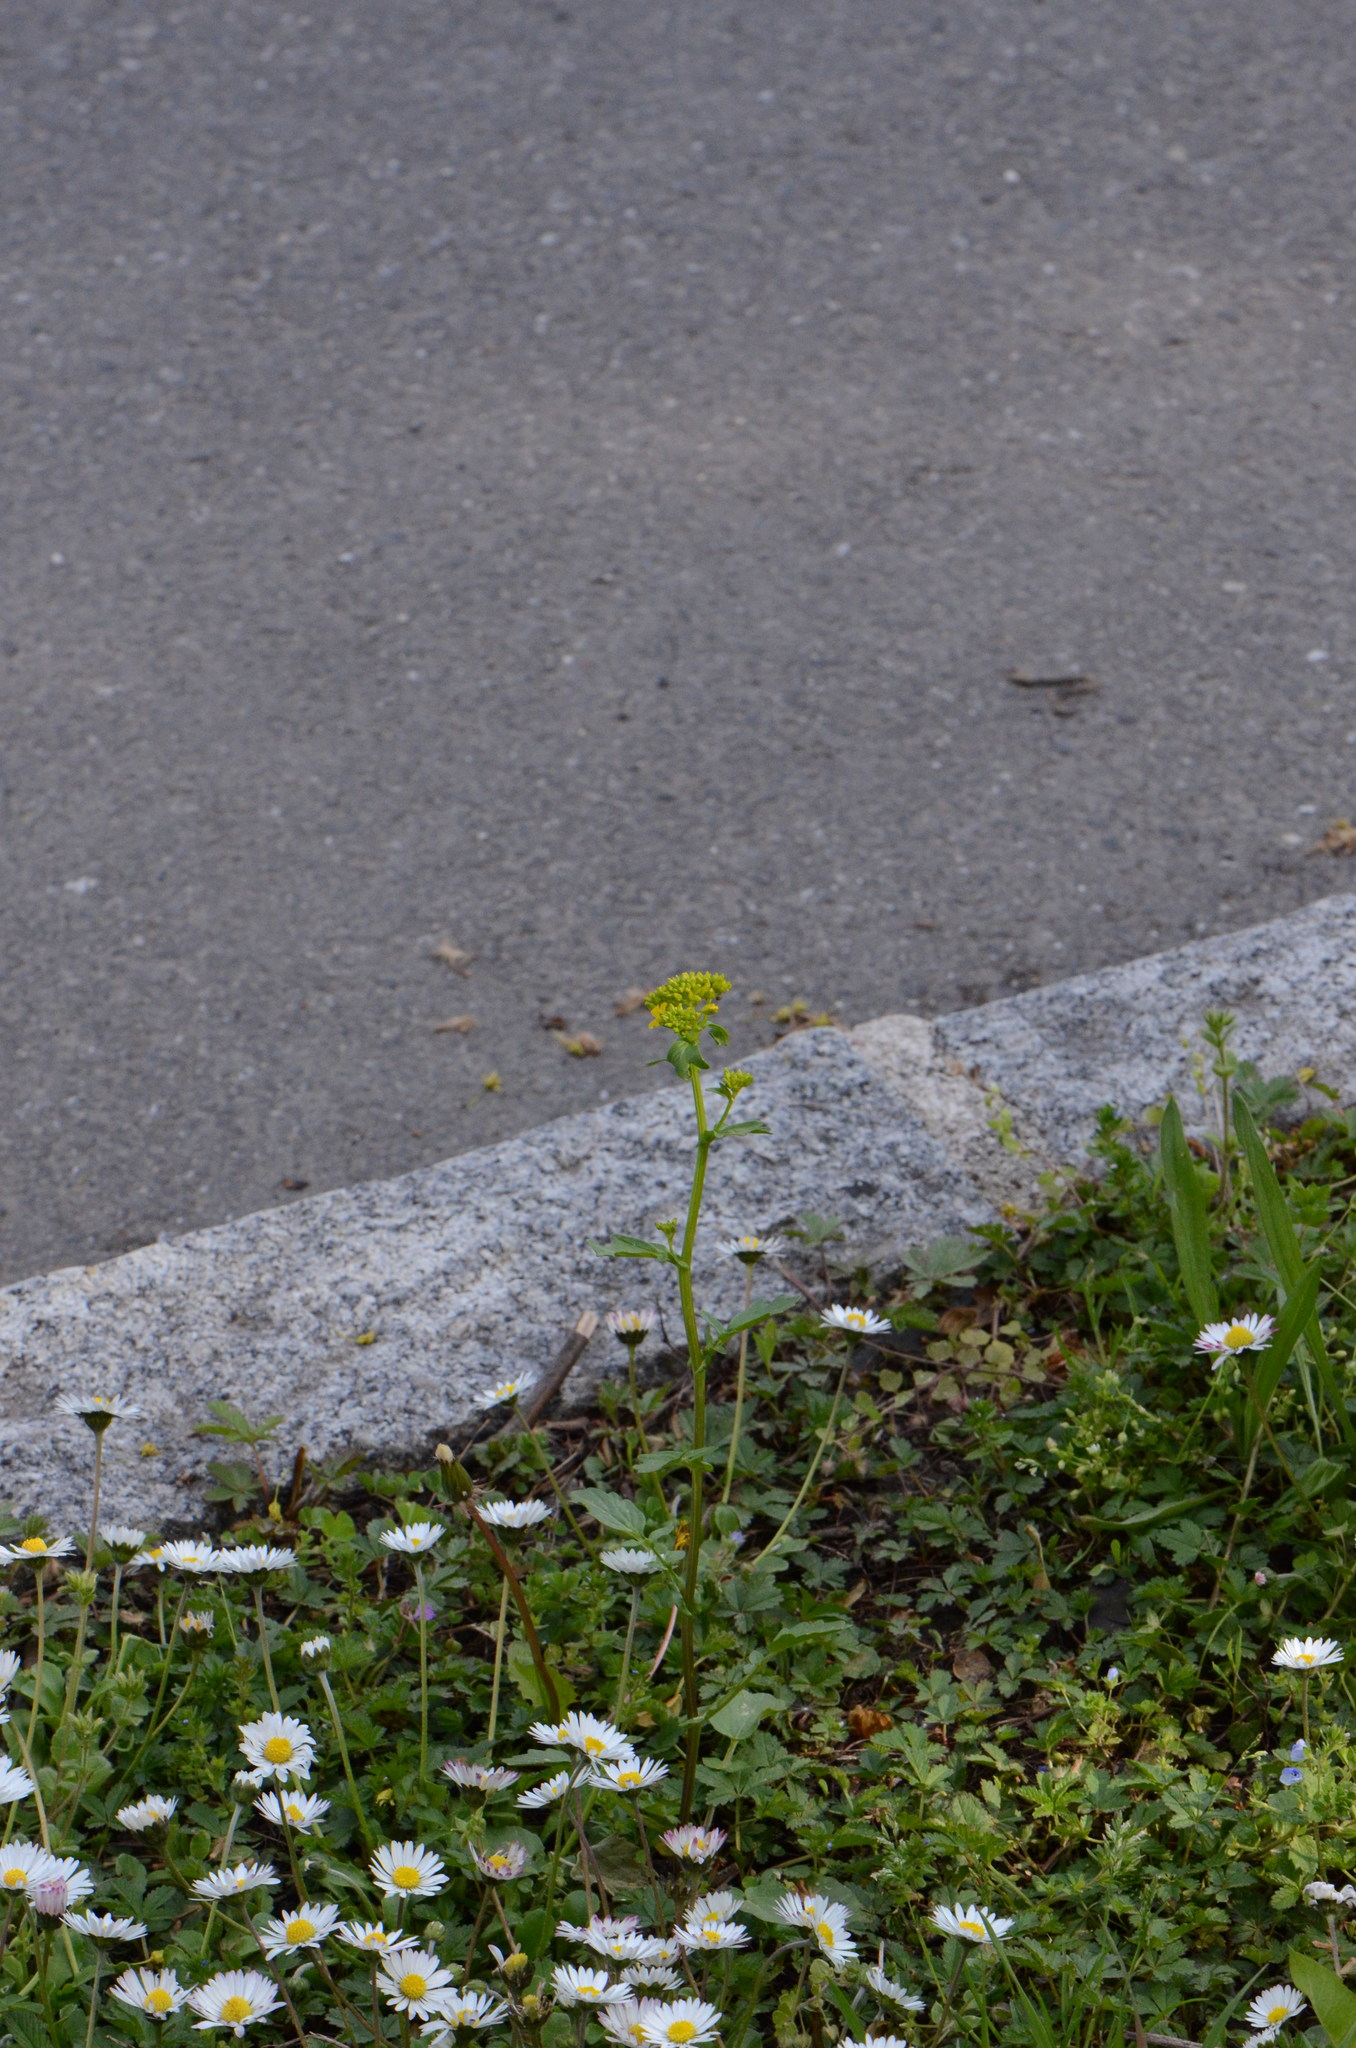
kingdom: Plantae
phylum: Tracheophyta
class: Magnoliopsida
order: Brassicales
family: Brassicaceae
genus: Barbarea
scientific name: Barbarea vulgaris
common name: Cressy-greens
